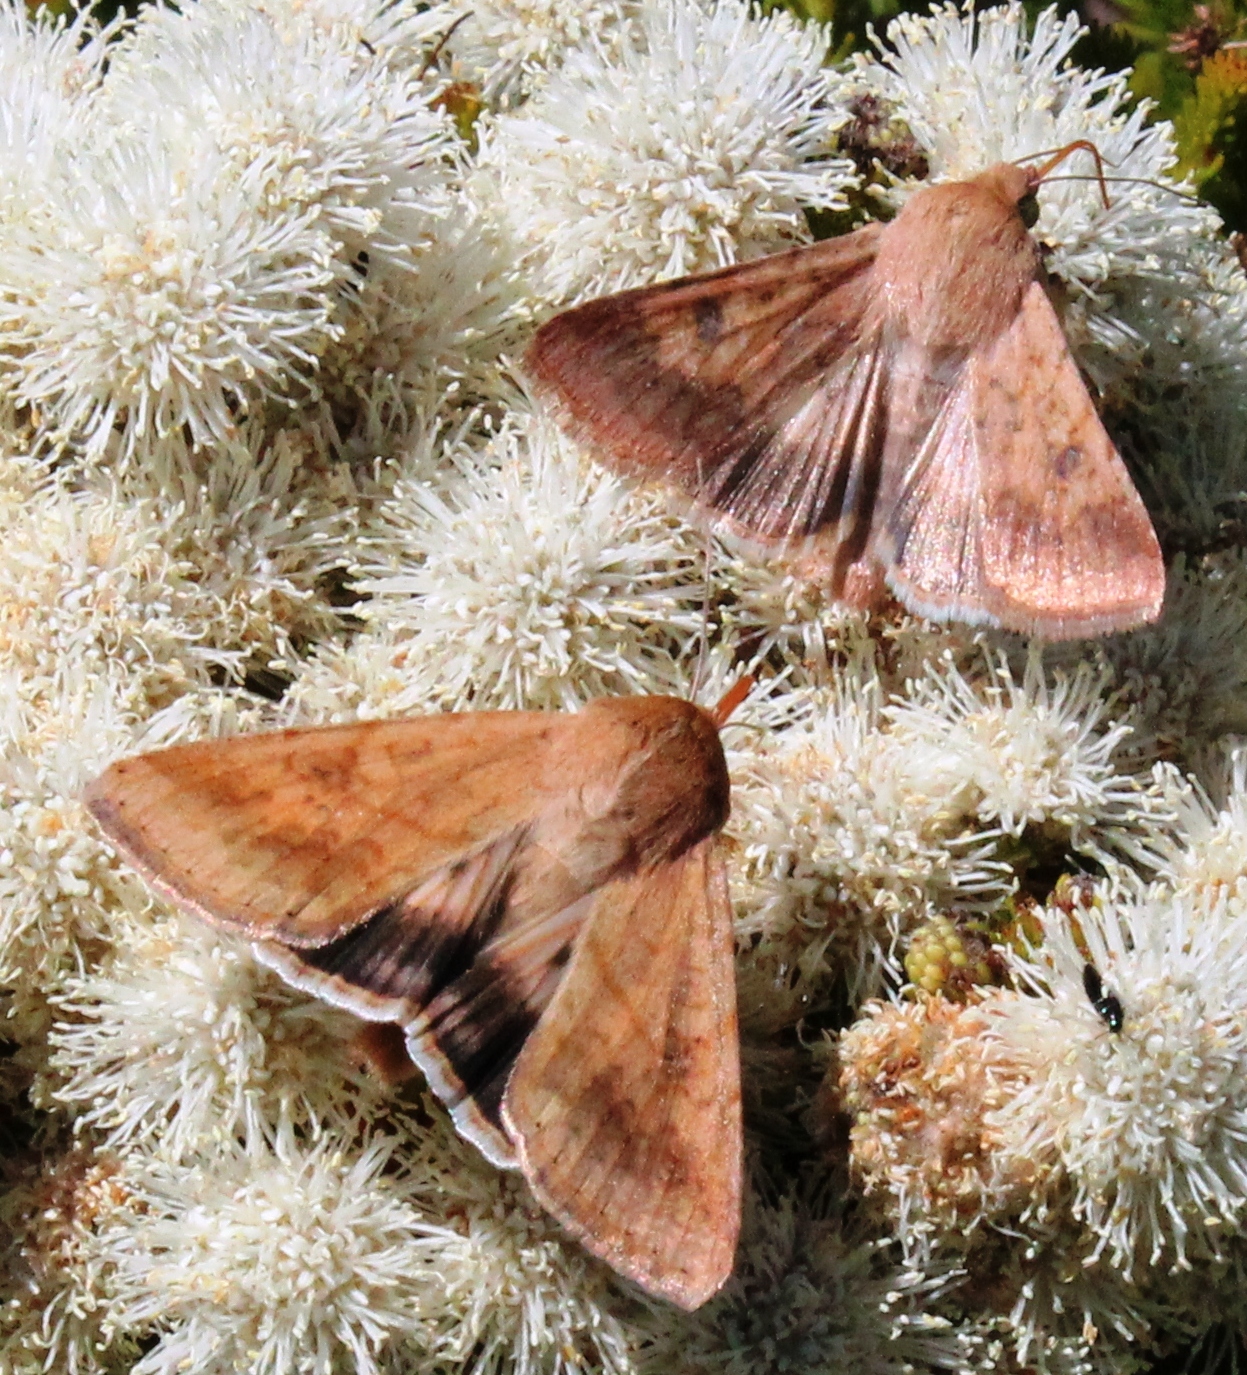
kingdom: Animalia
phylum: Arthropoda
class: Insecta
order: Lepidoptera
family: Noctuidae
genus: Helicoverpa
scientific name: Helicoverpa armigera
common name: Cotton bollworm
